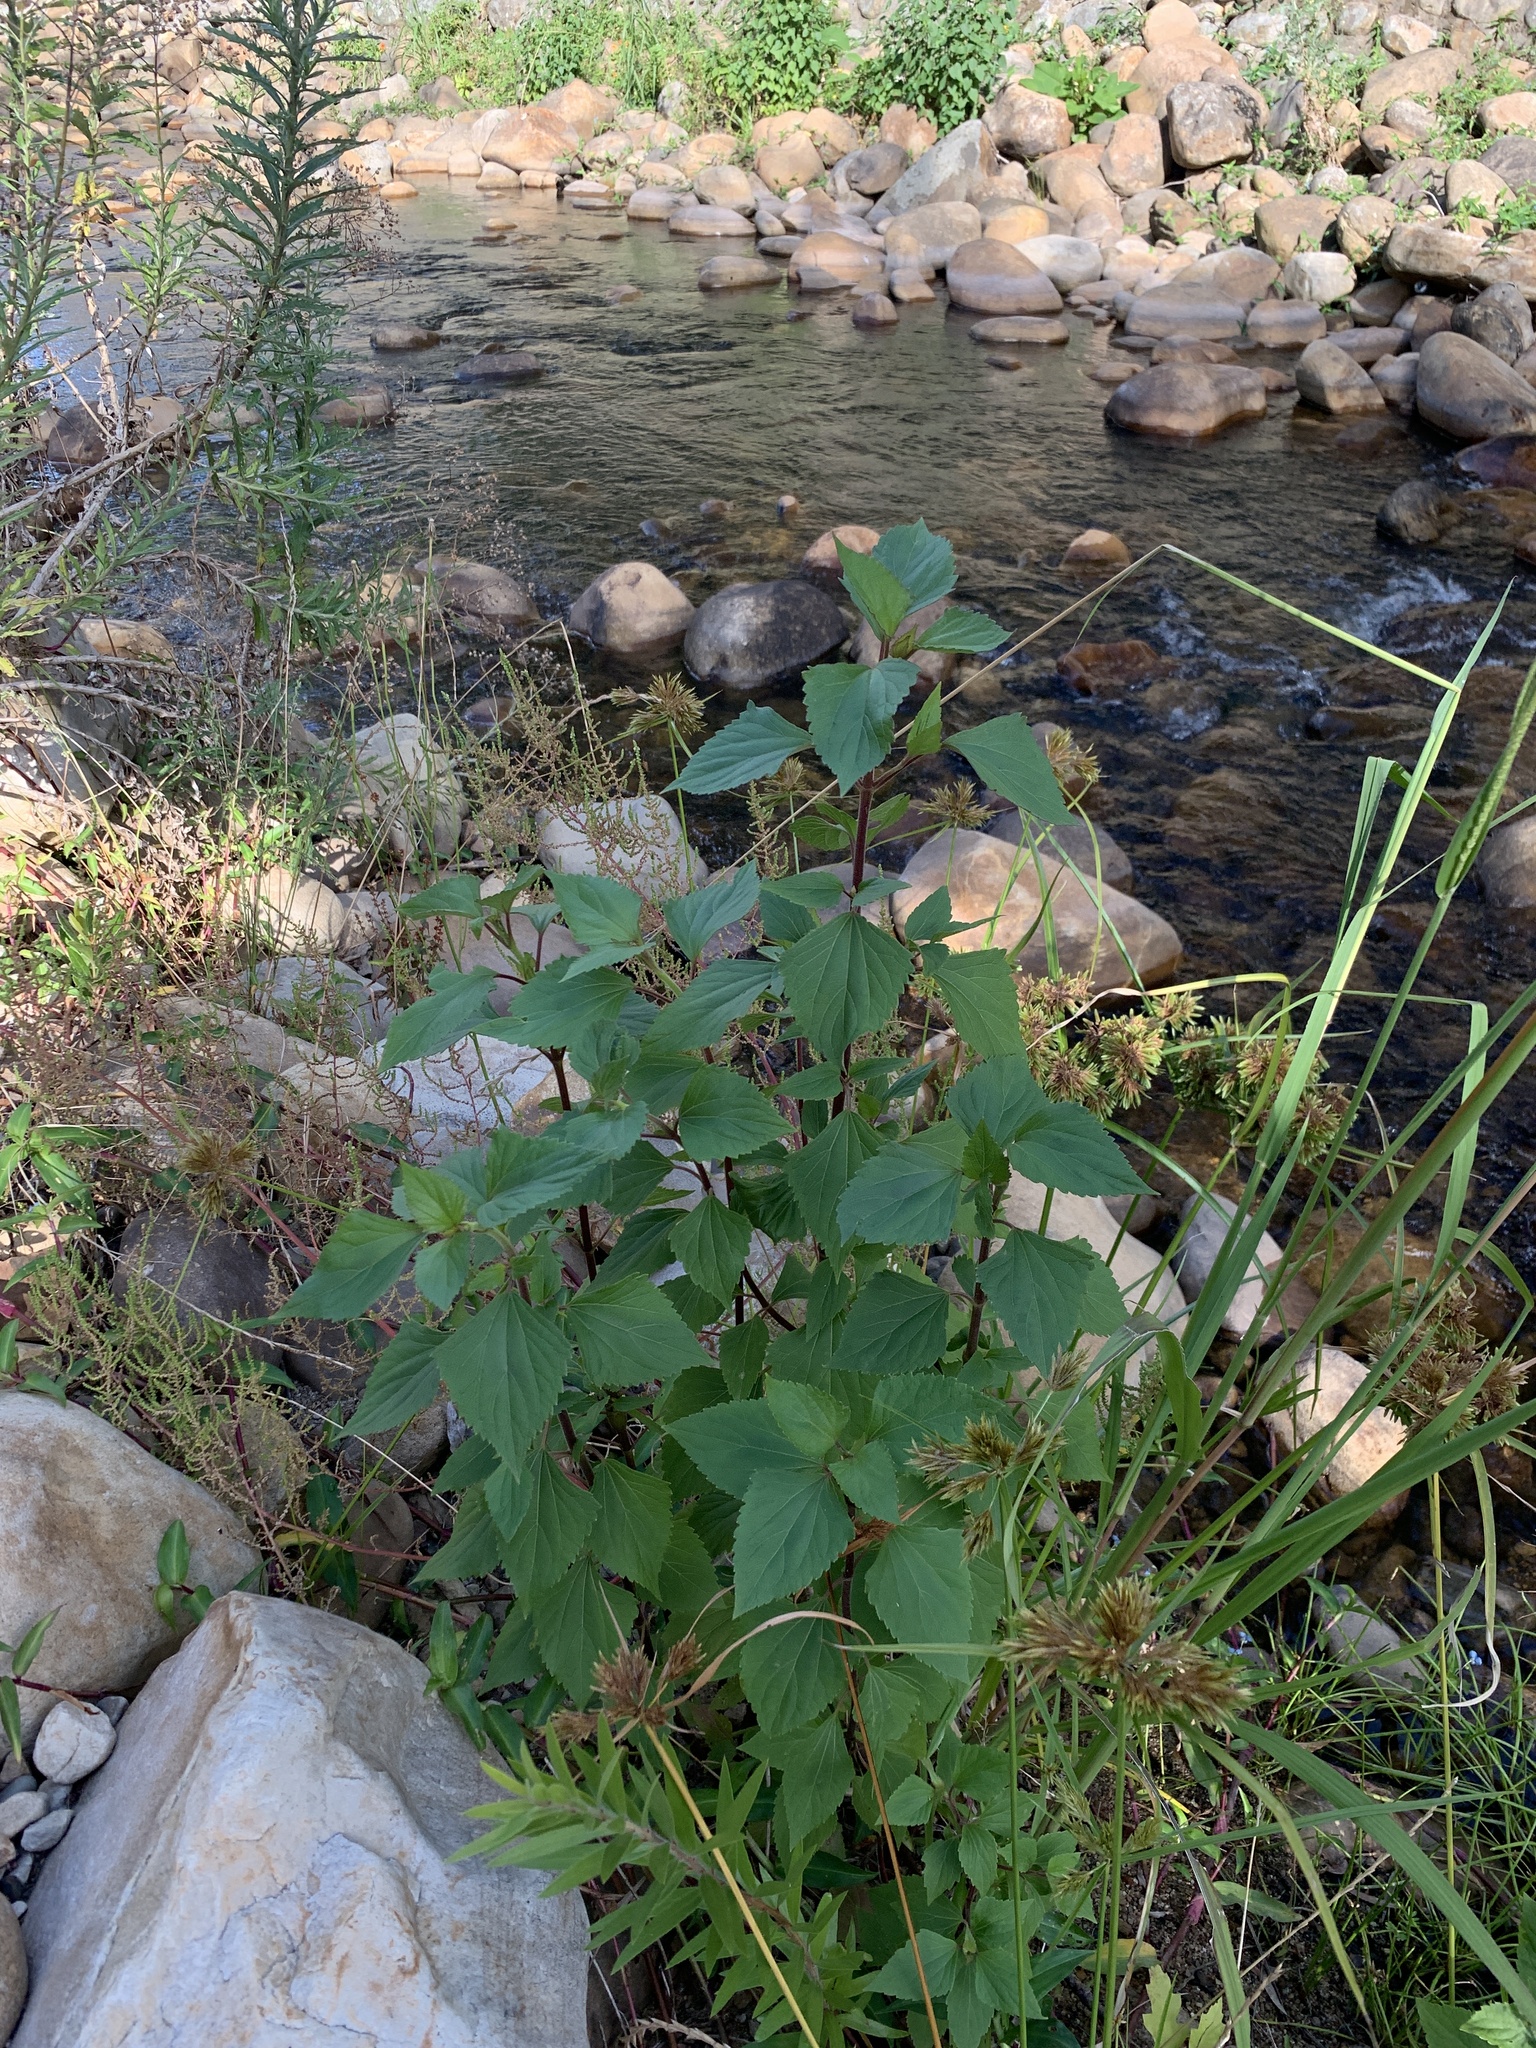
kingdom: Plantae
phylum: Tracheophyta
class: Magnoliopsida
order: Asterales
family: Asteraceae
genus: Ageratina
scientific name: Ageratina adenophora
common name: Sticky snakeroot
